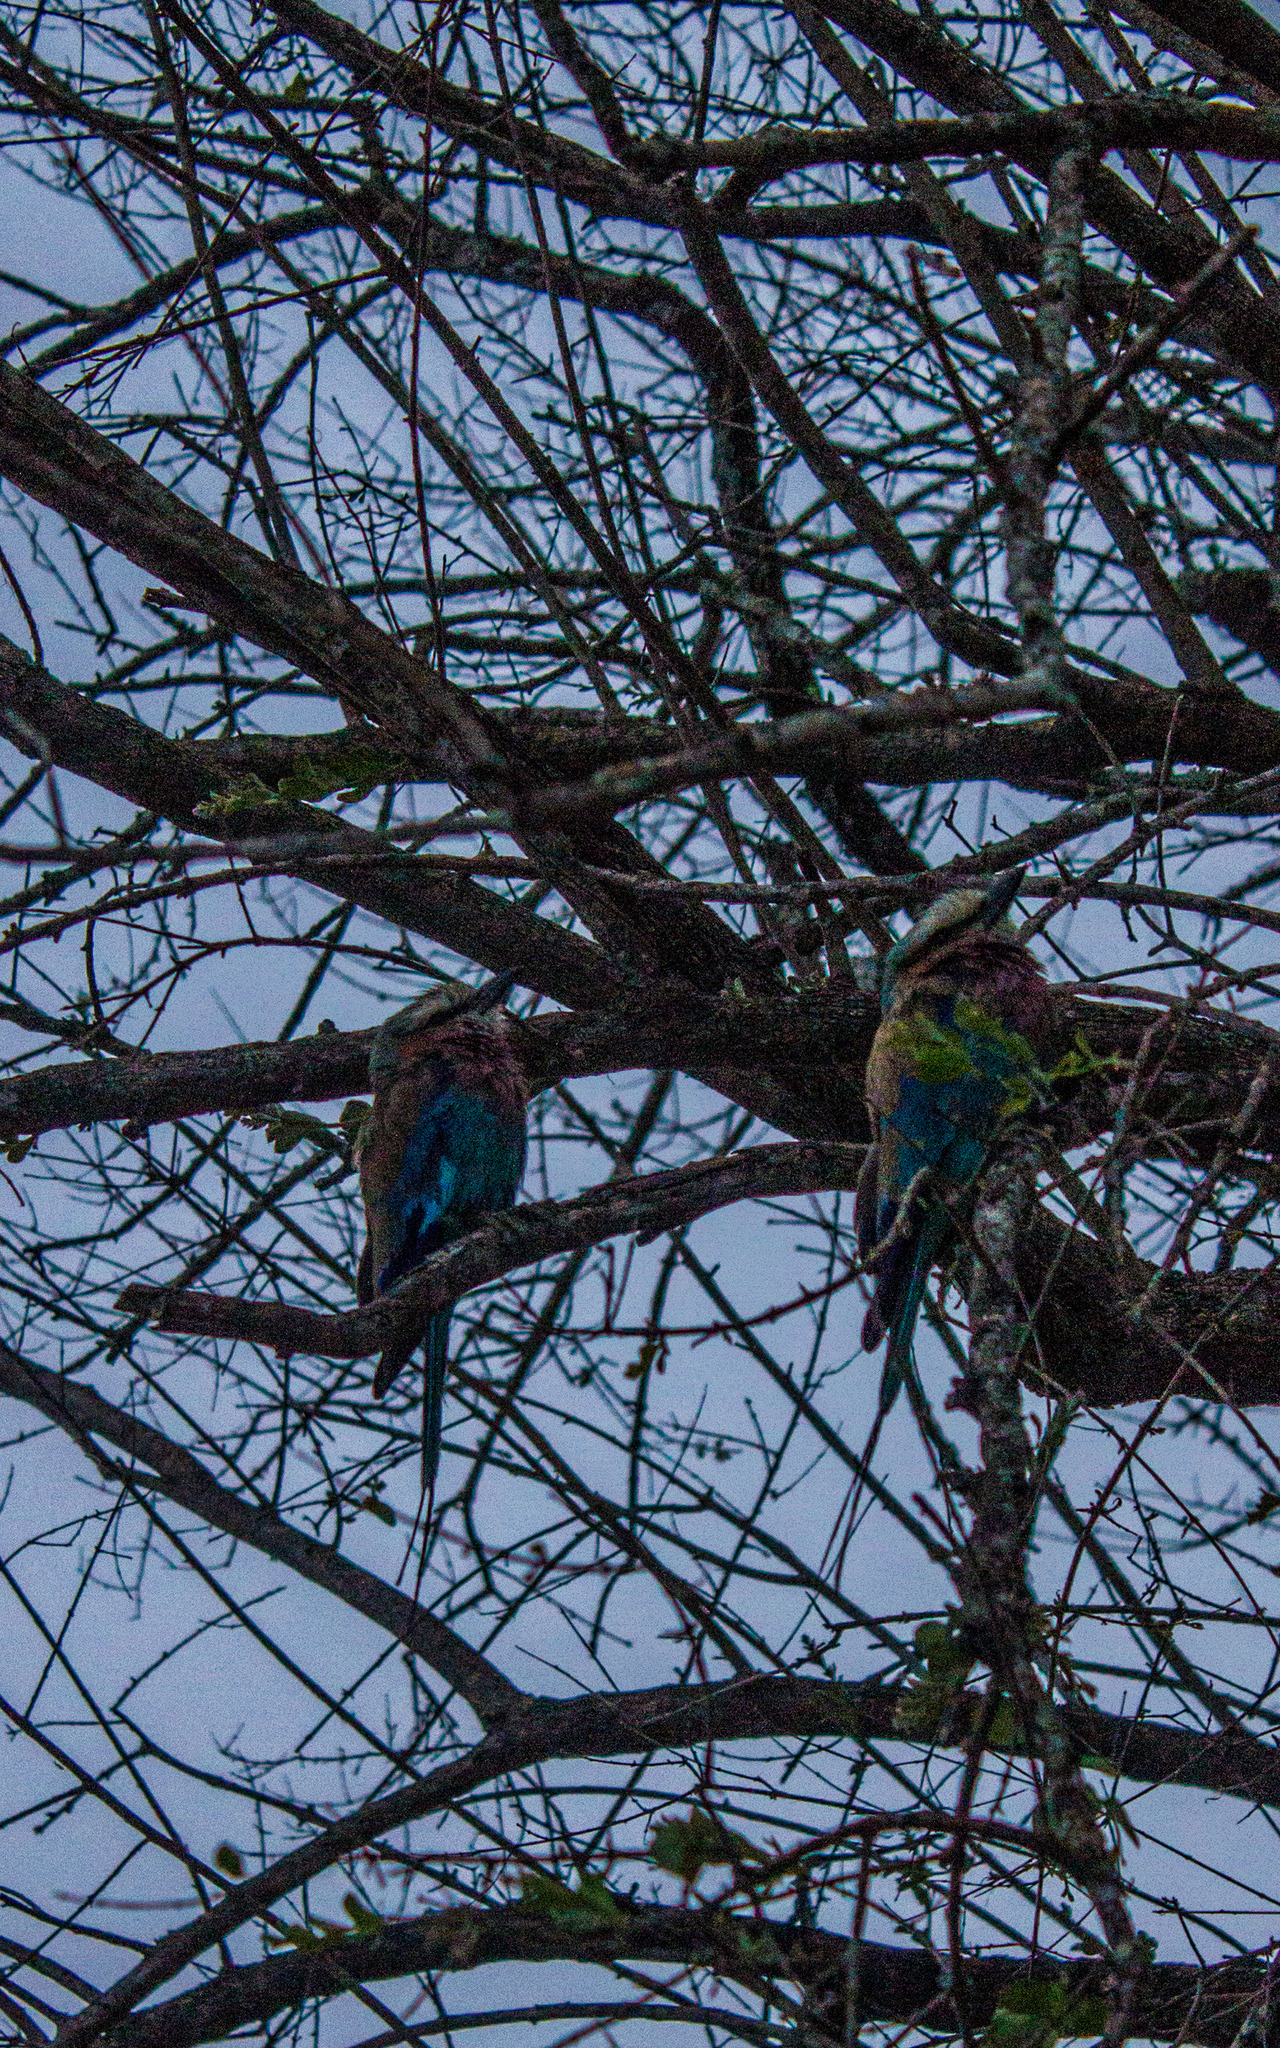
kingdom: Animalia
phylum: Chordata
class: Aves
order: Coraciiformes
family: Coraciidae
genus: Coracias
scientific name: Coracias caudatus
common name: Lilac-breasted roller
